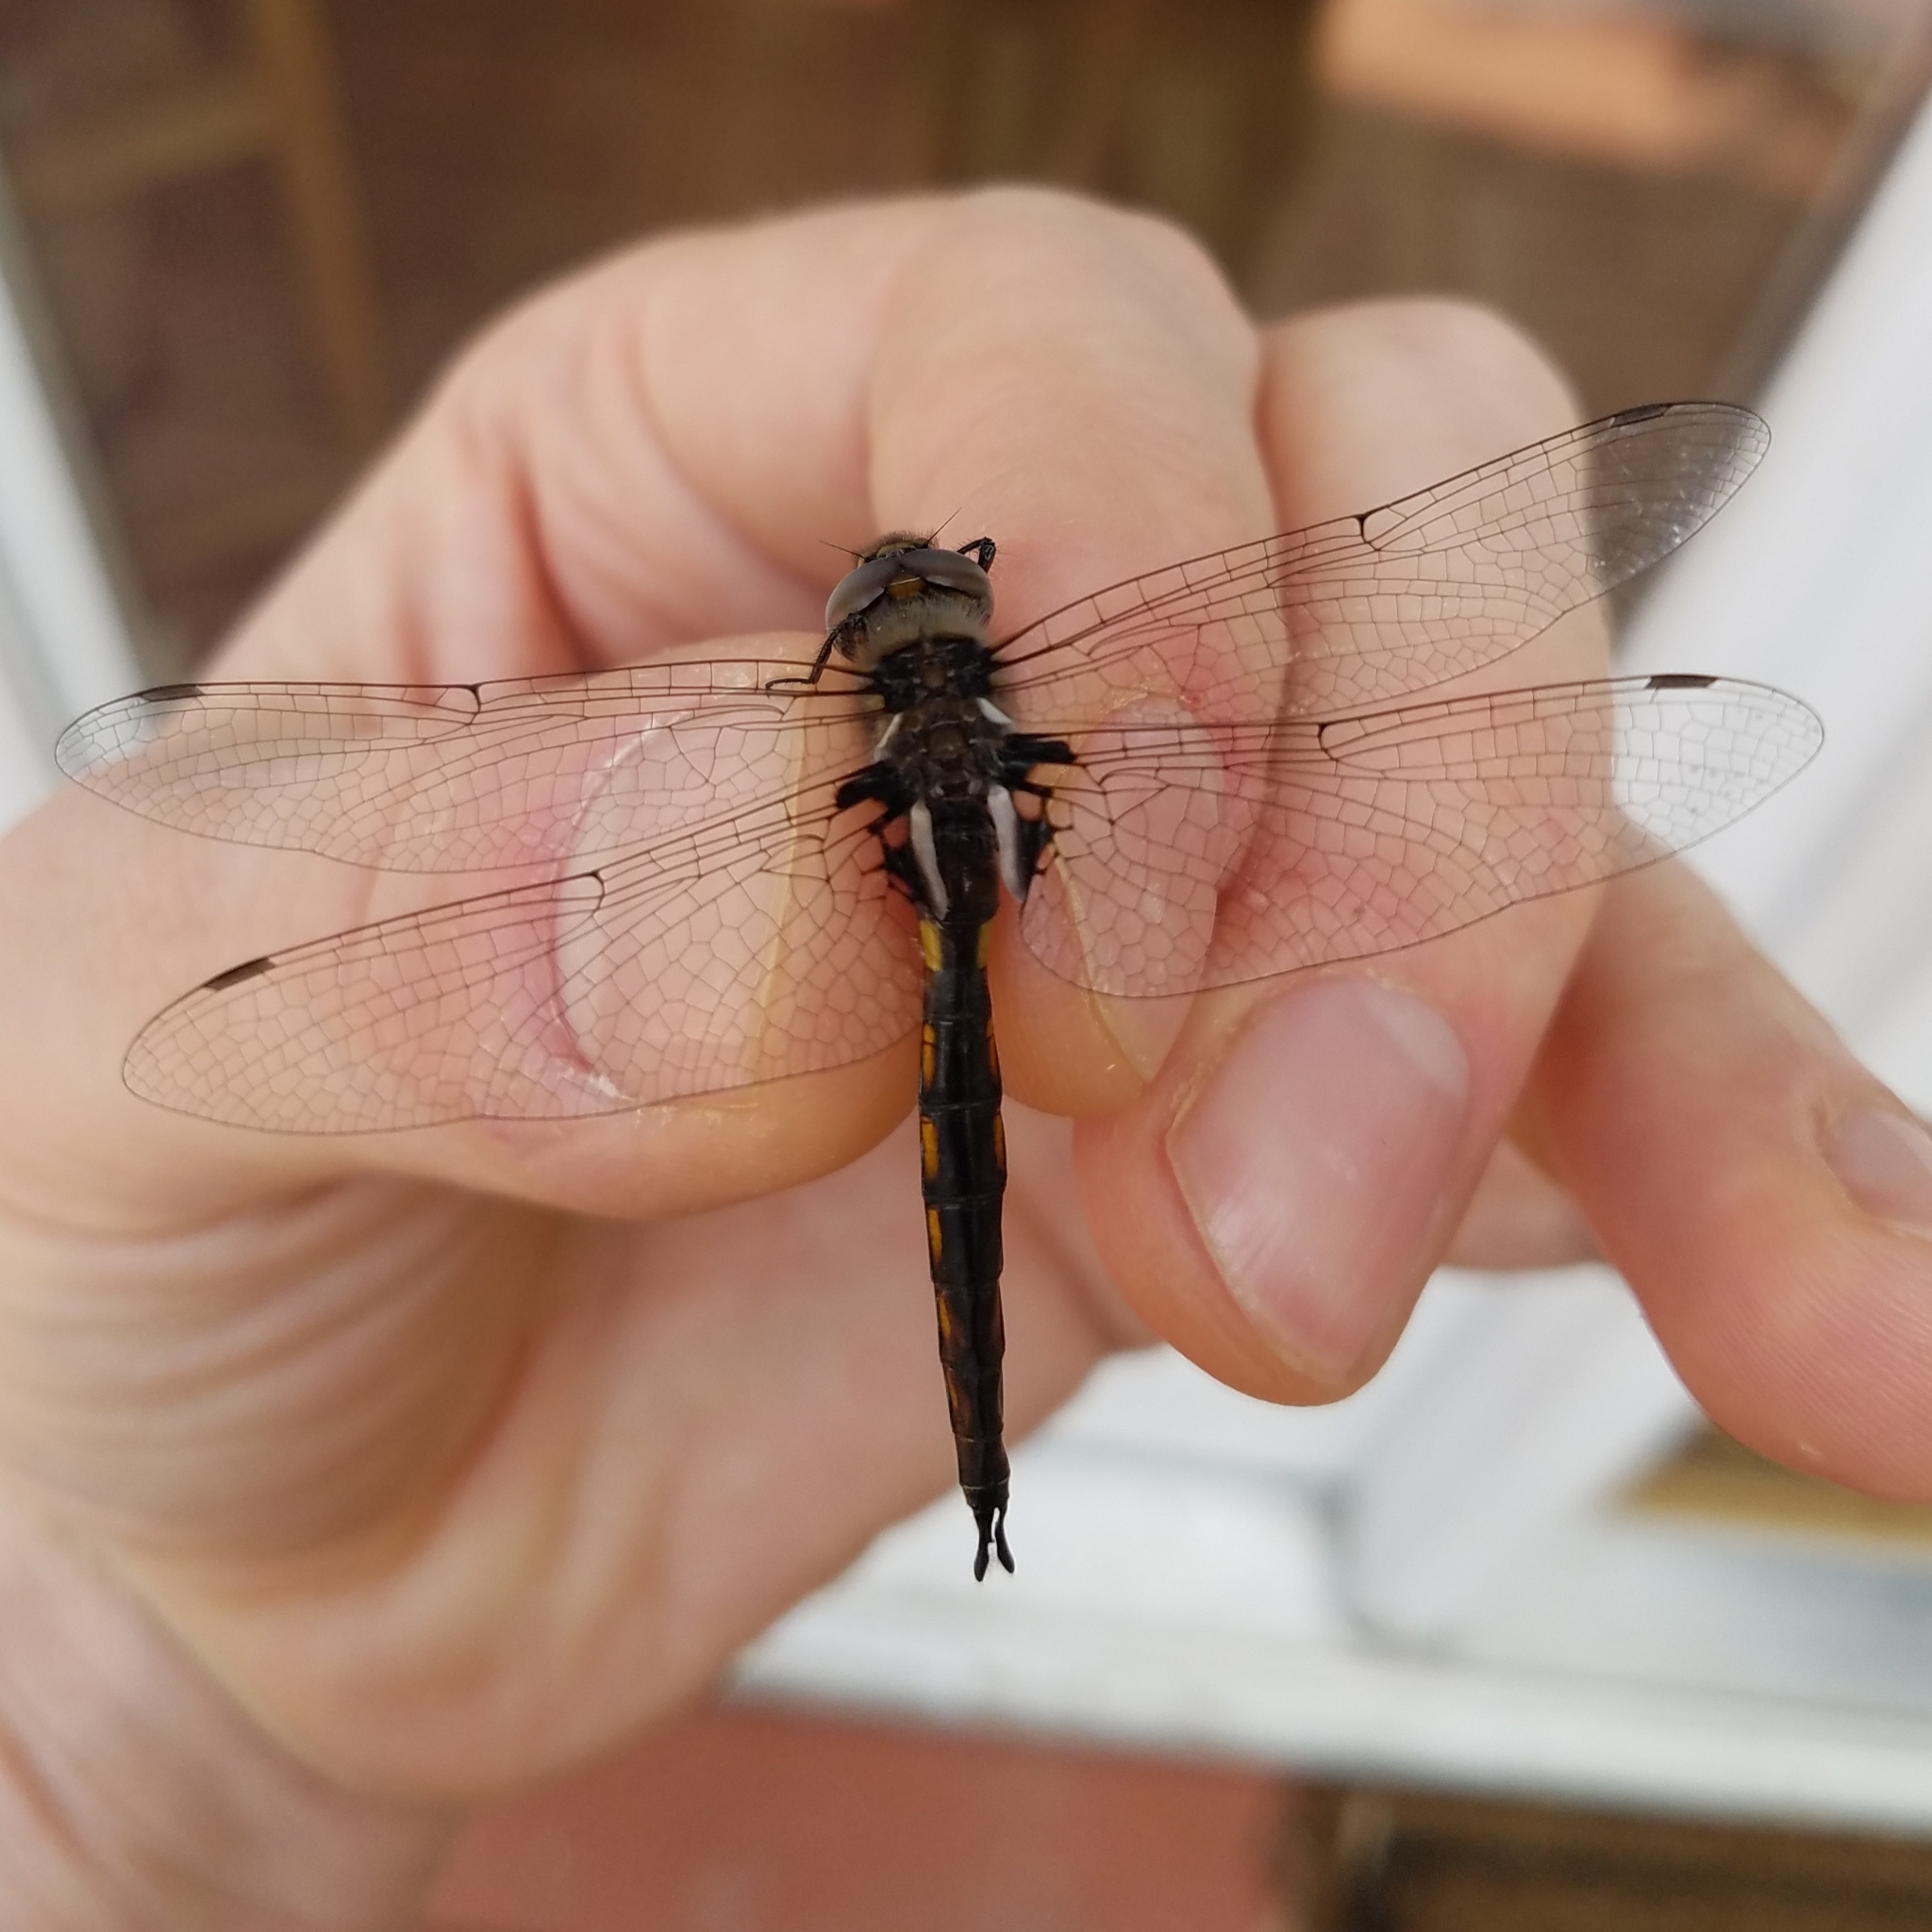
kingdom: Animalia
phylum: Arthropoda
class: Insecta
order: Odonata
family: Corduliidae
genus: Epitheca
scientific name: Epitheca cynosura
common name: Common baskettail
